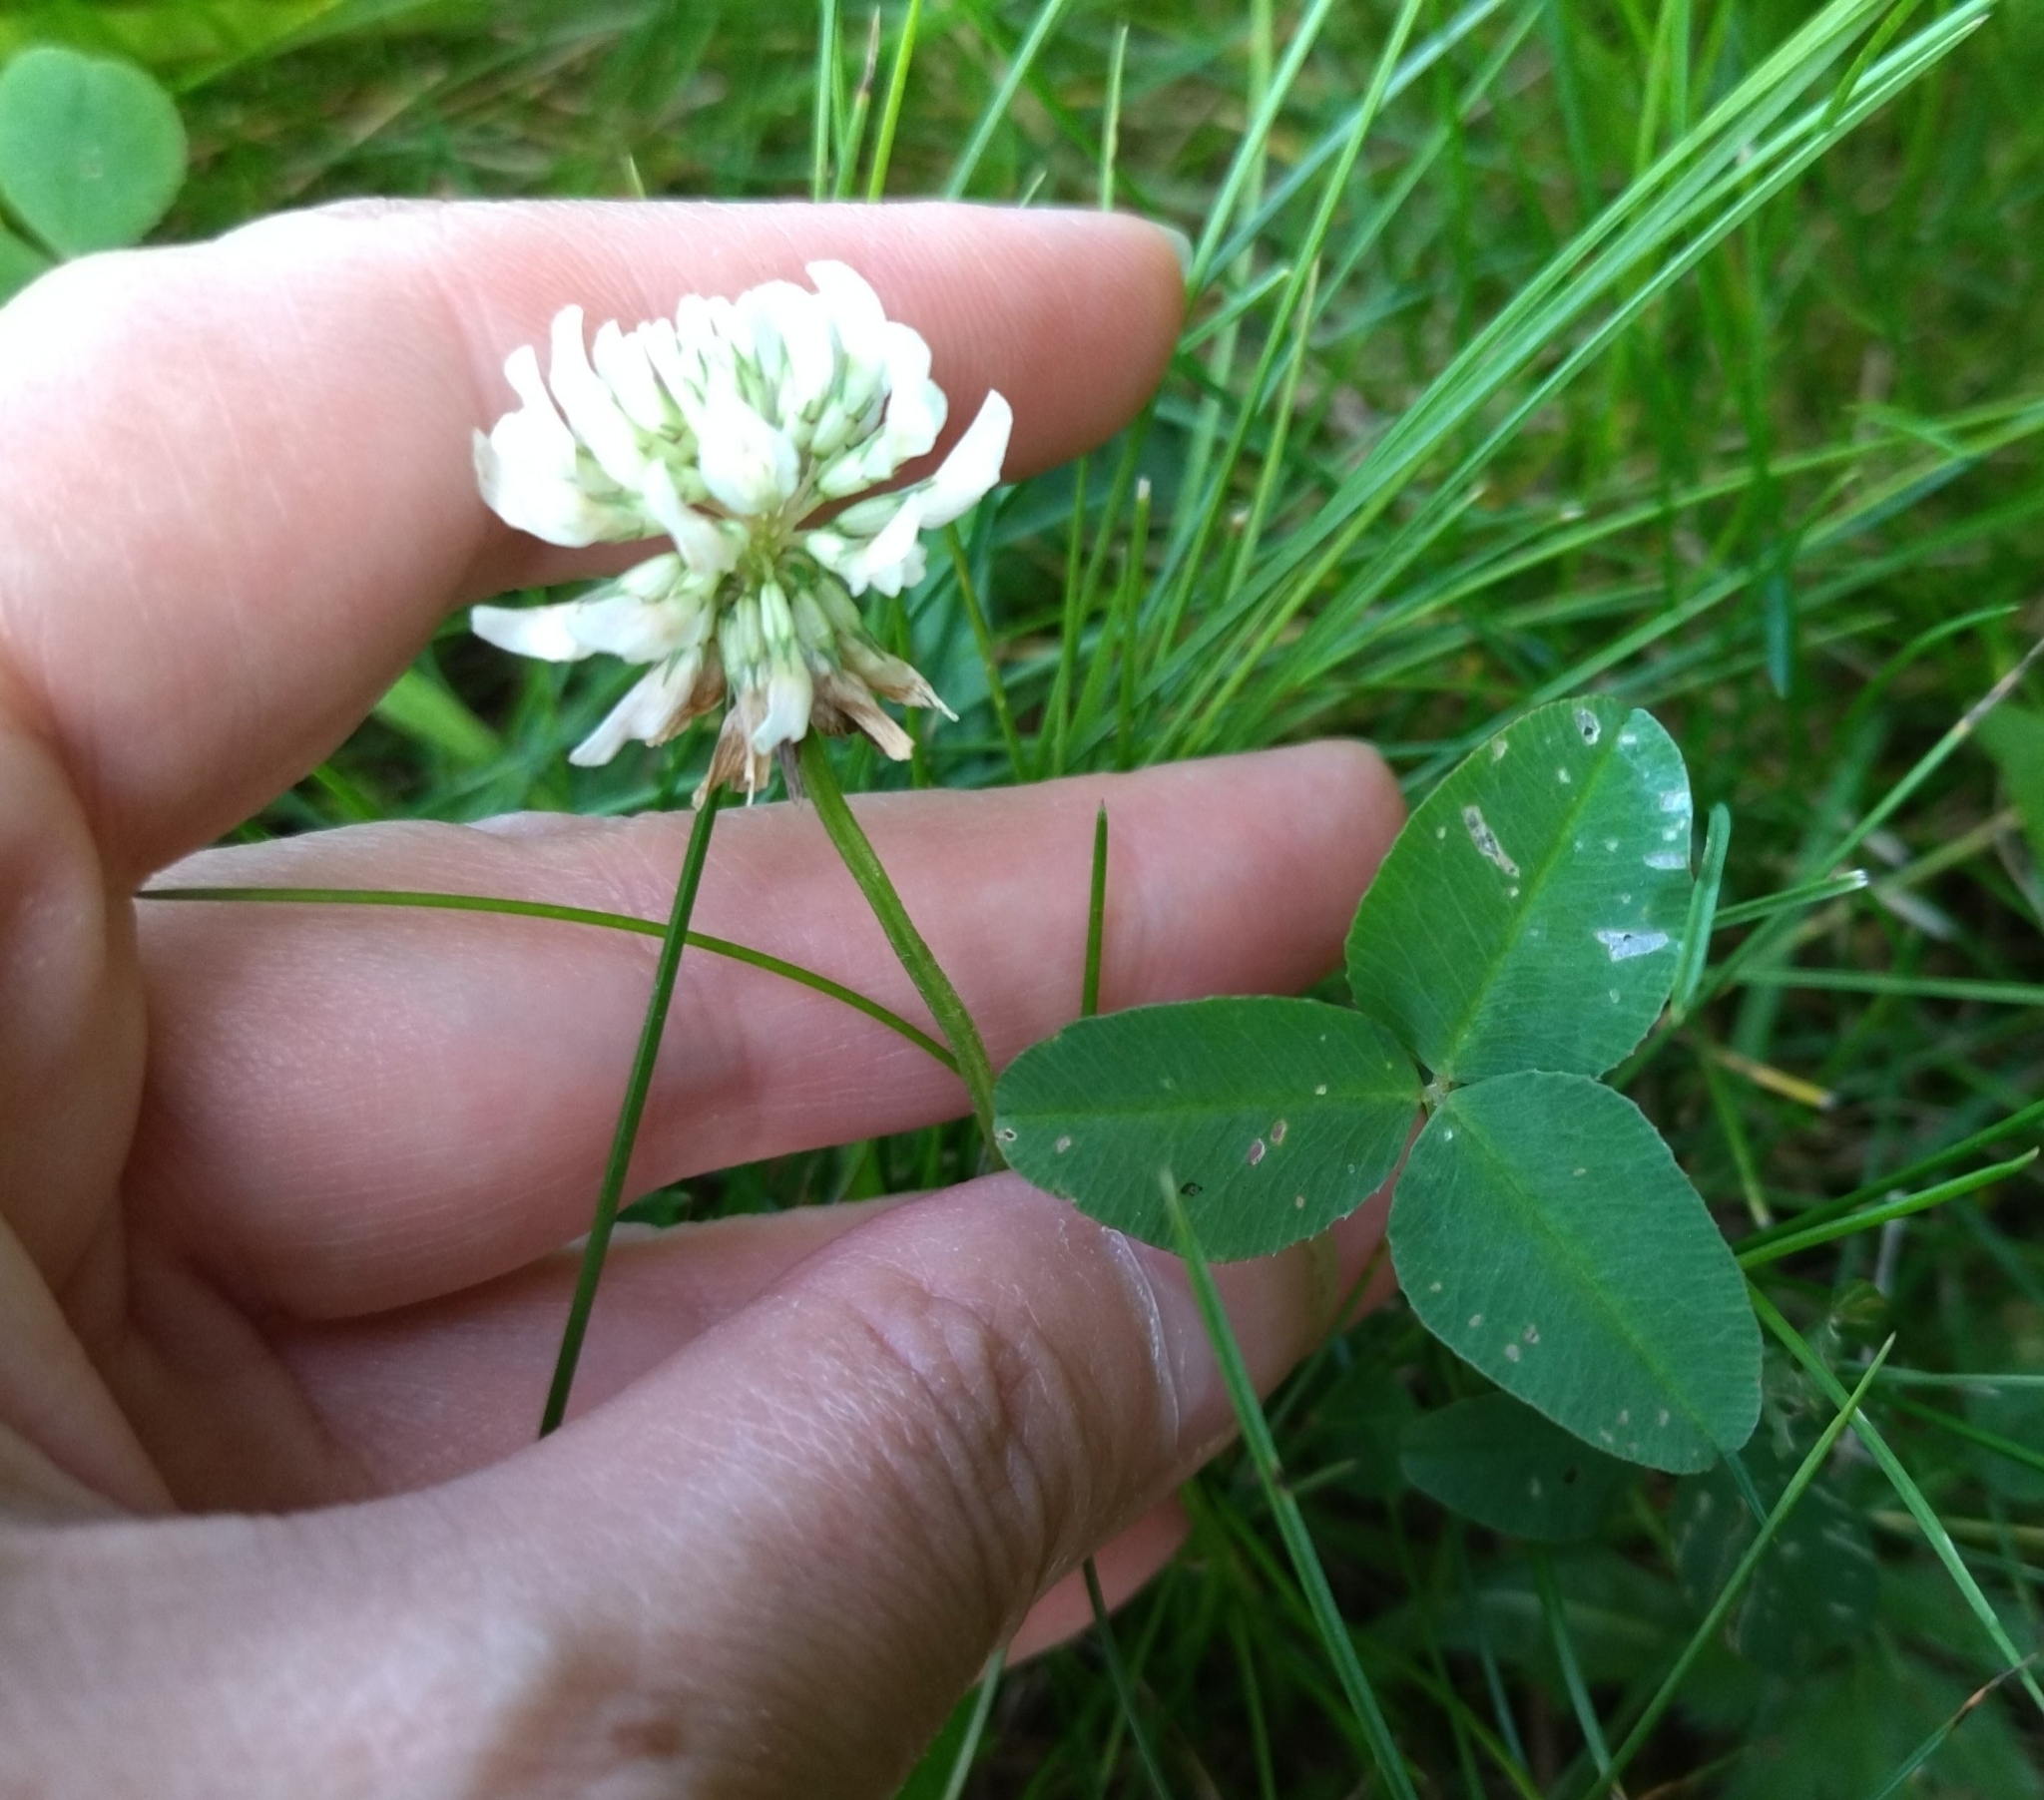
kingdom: Plantae
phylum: Tracheophyta
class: Magnoliopsida
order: Fabales
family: Fabaceae
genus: Trifolium
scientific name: Trifolium repens
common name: White clover
